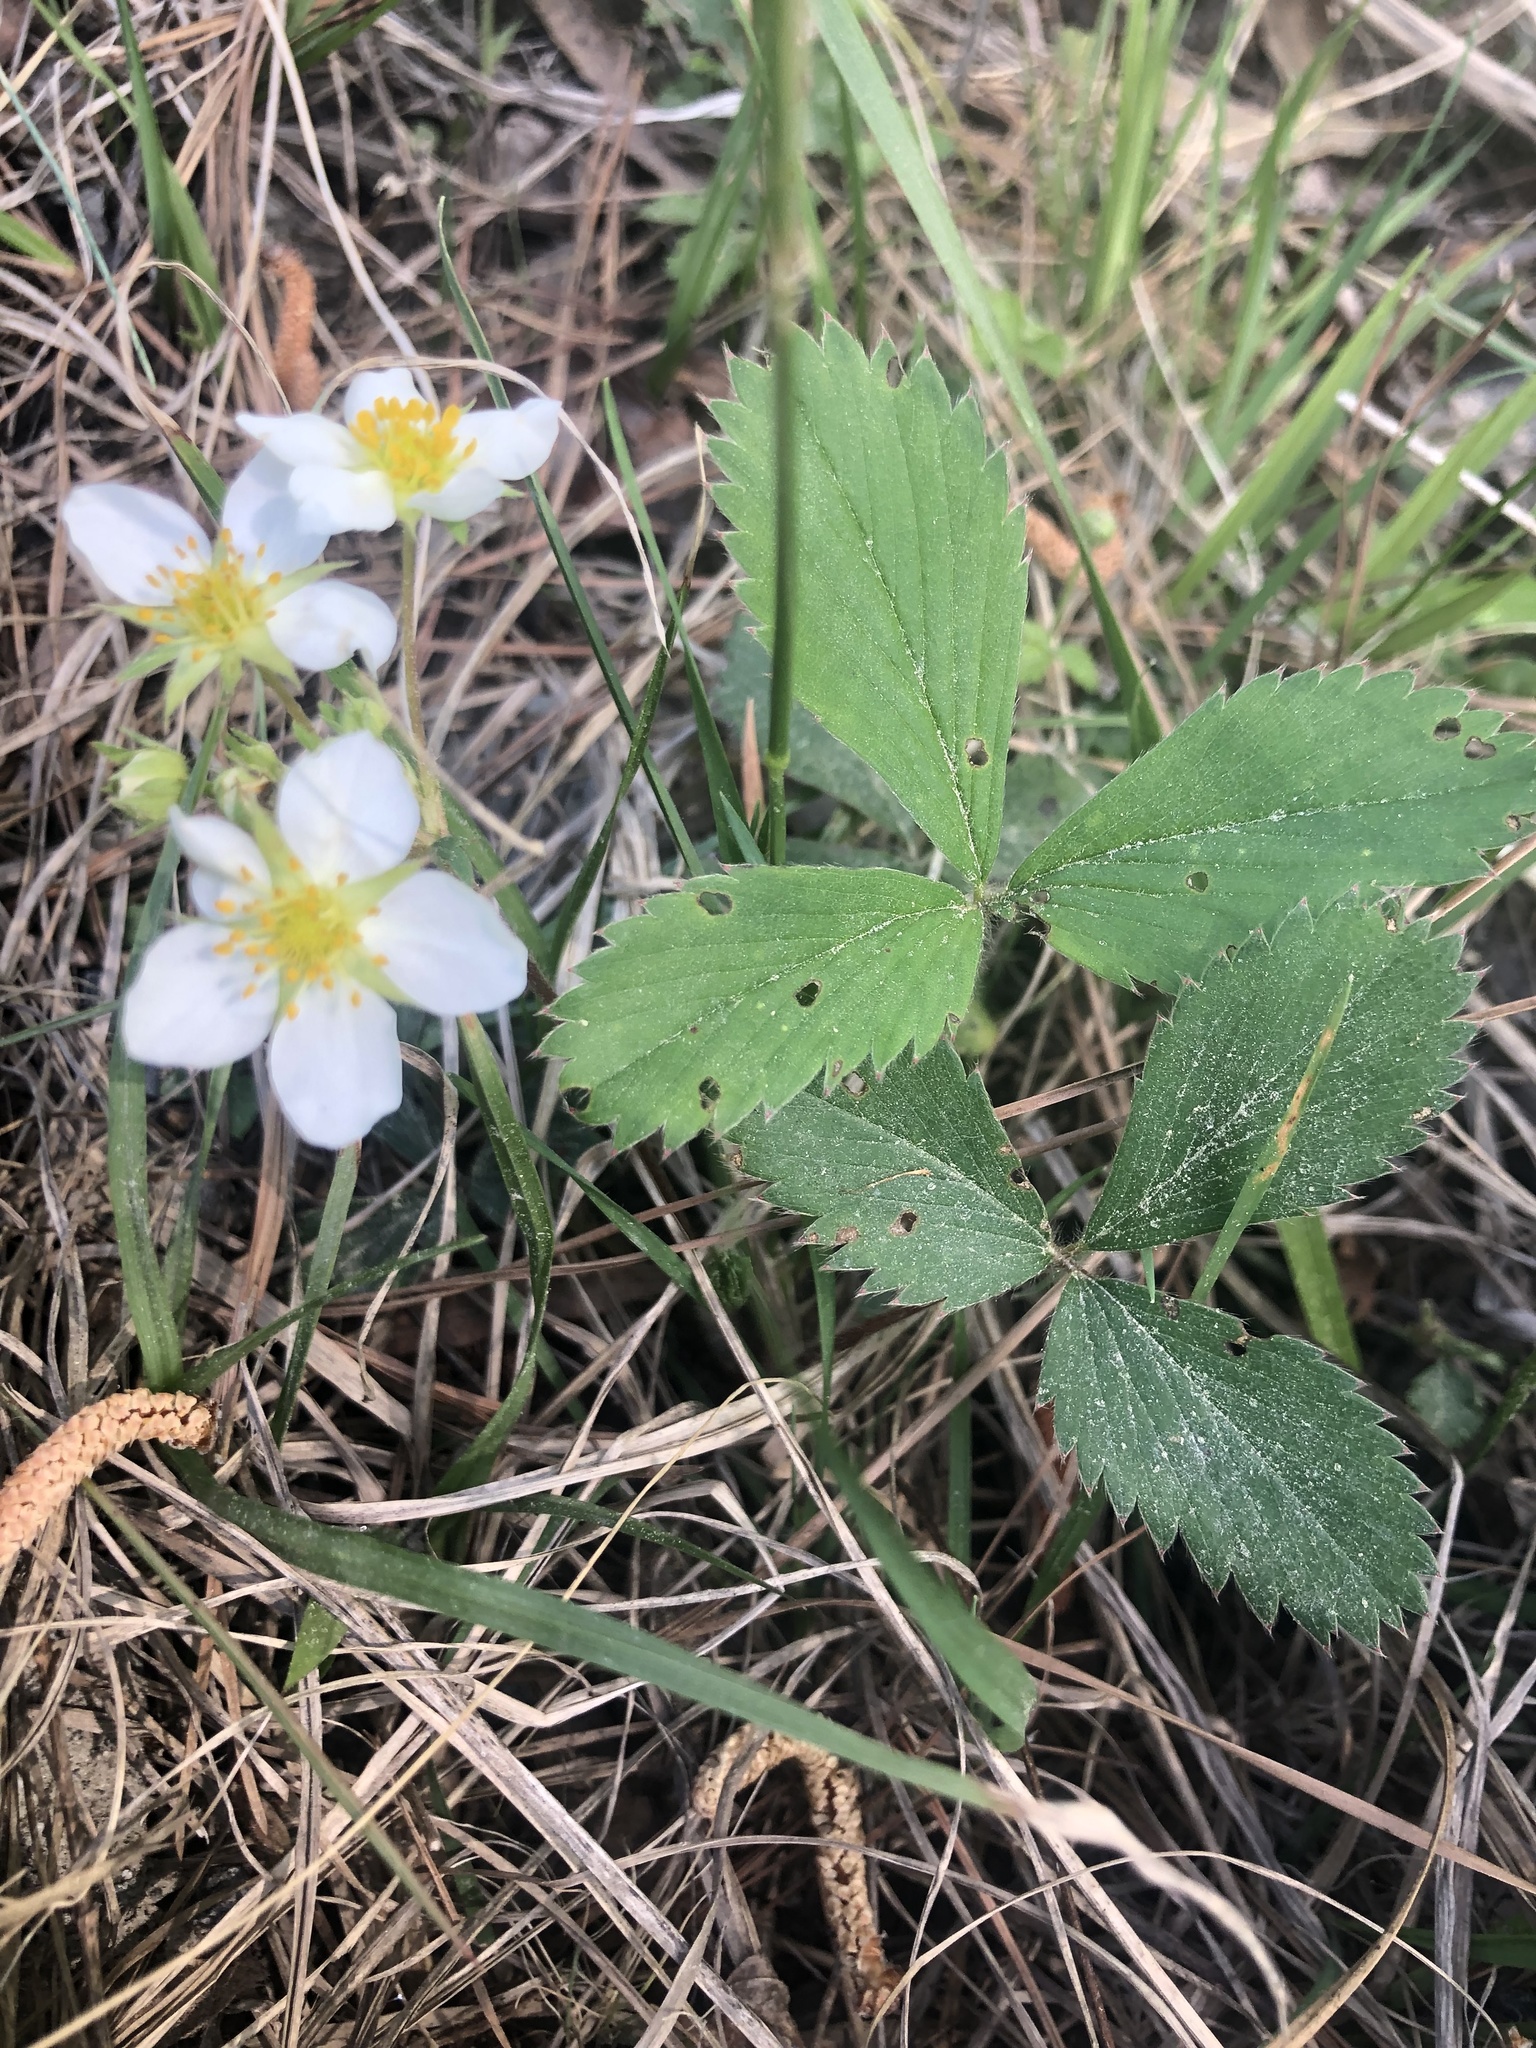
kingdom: Plantae
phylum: Tracheophyta
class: Magnoliopsida
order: Rosales
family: Rosaceae
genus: Fragaria
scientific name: Fragaria virginiana
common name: Thickleaved wild strawberry
